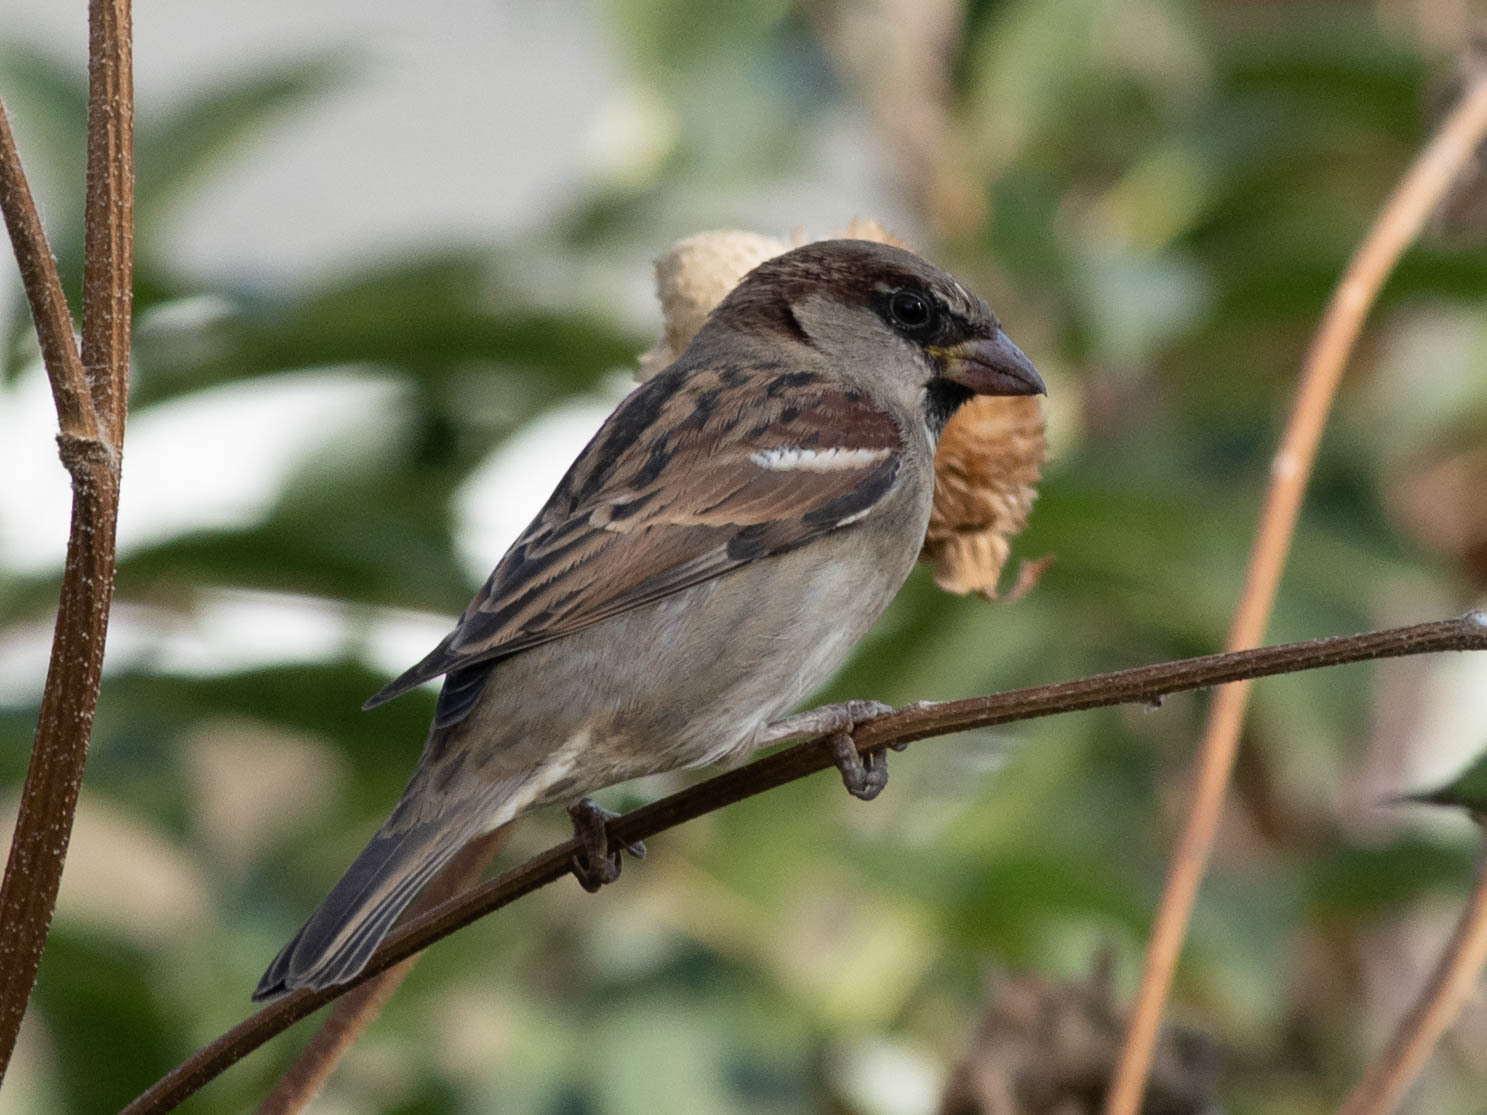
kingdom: Animalia
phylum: Chordata
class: Aves
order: Passeriformes
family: Passeridae
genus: Passer
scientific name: Passer domesticus
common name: House sparrow
